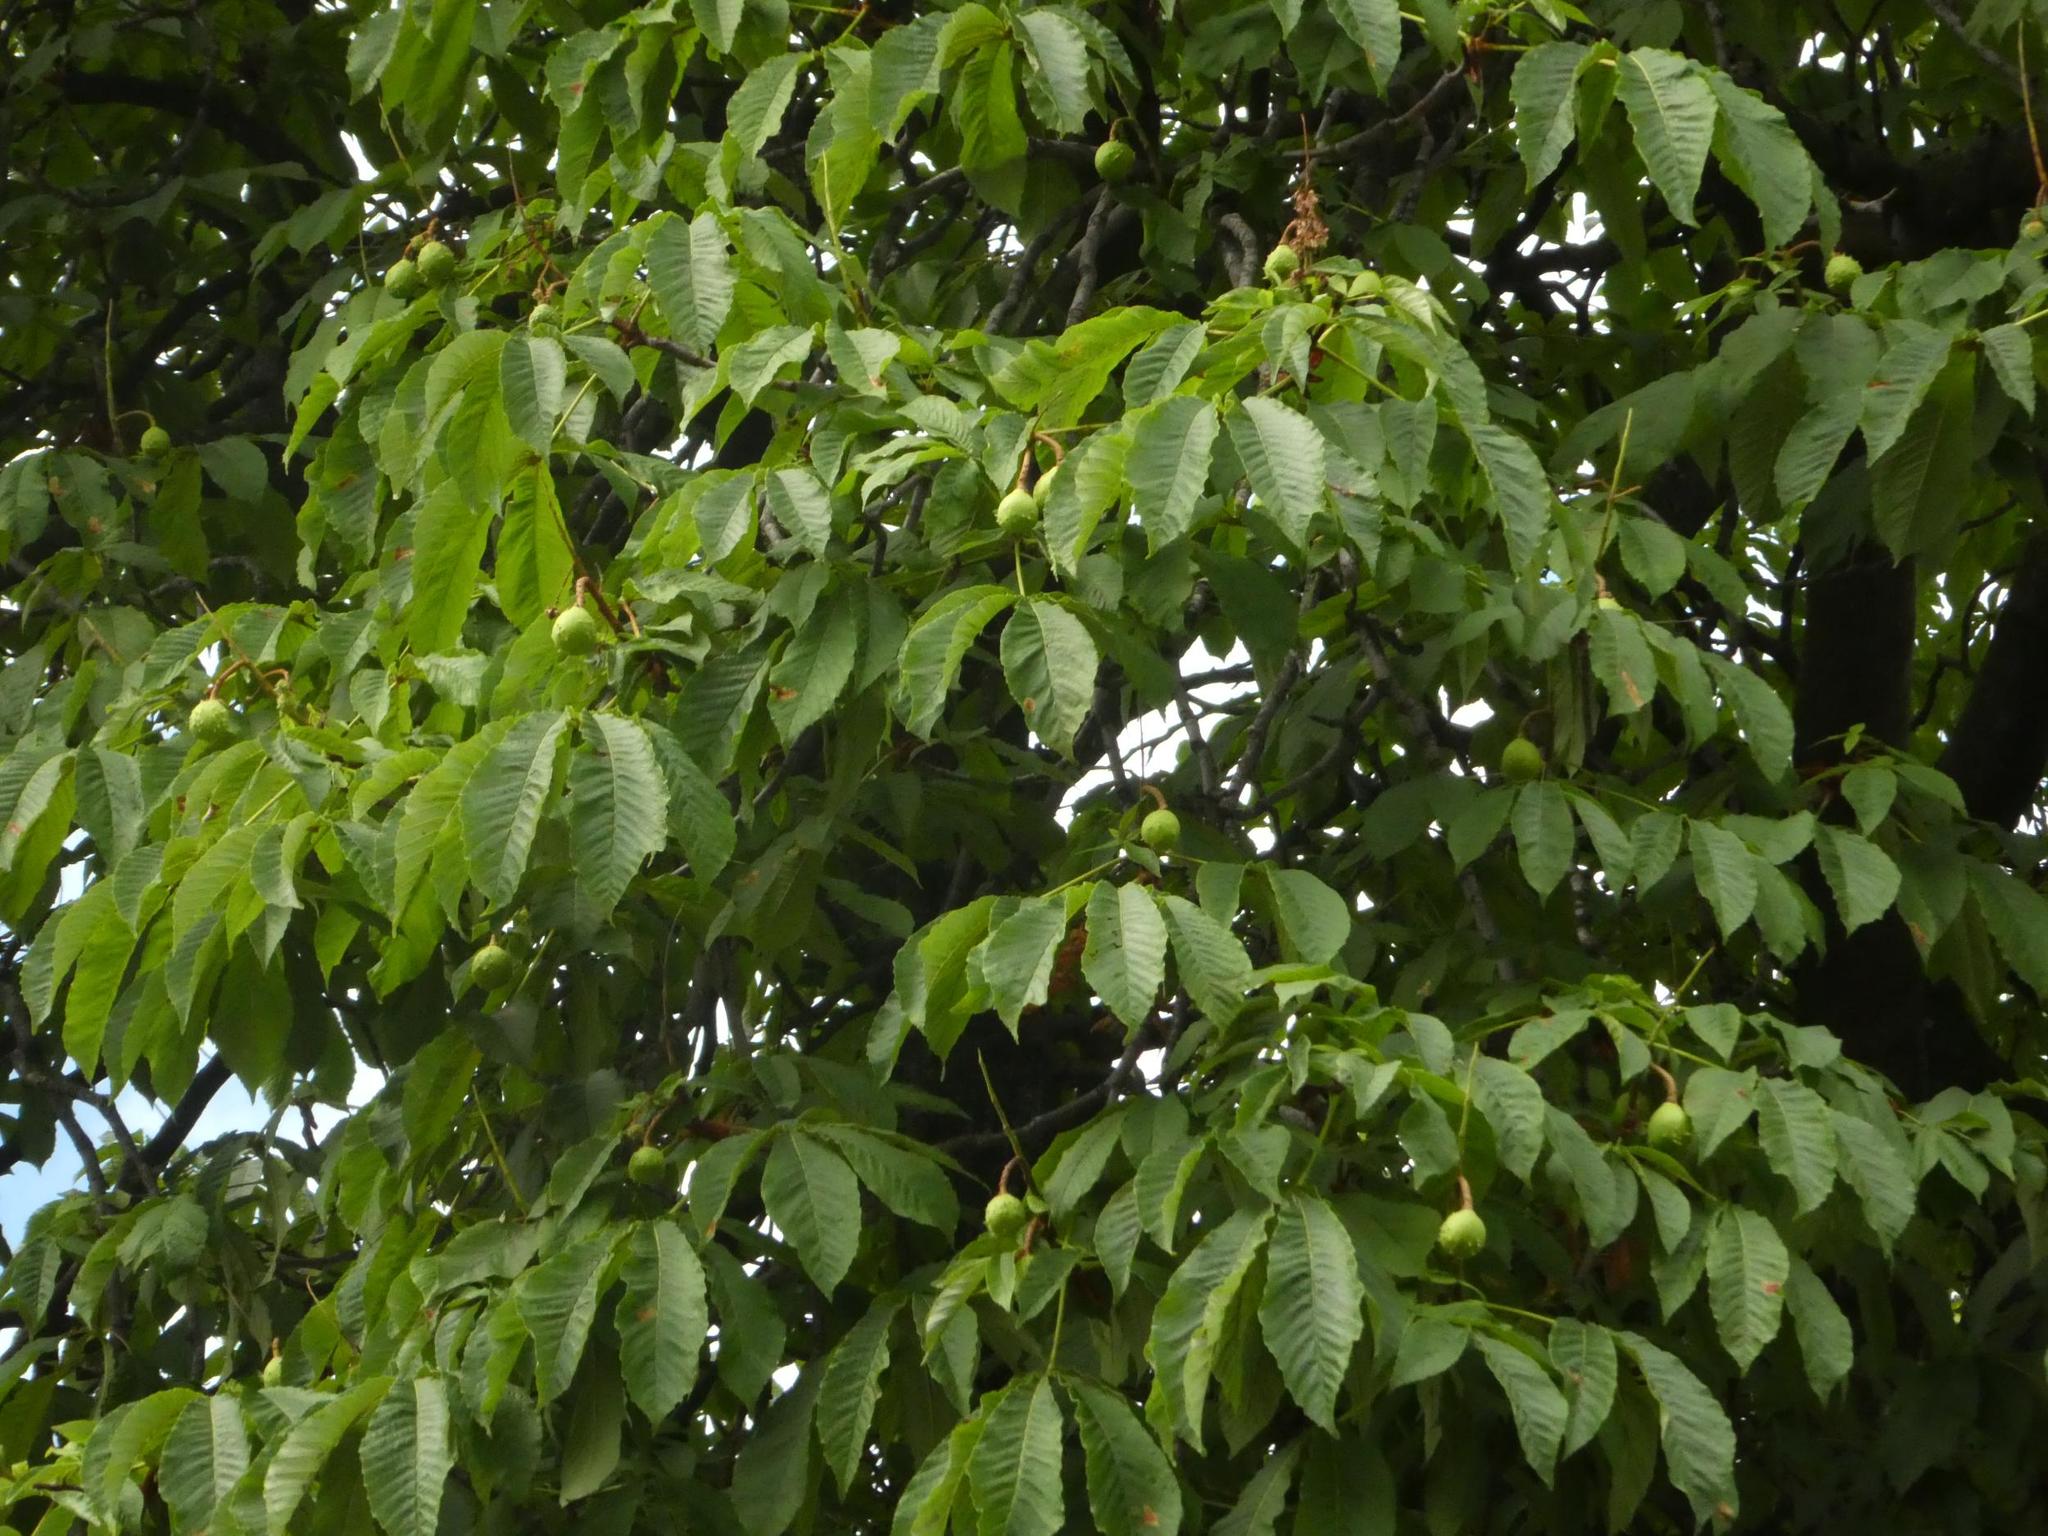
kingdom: Plantae
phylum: Tracheophyta
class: Magnoliopsida
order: Sapindales
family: Sapindaceae
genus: Aesculus
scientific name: Aesculus hippocastanum
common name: Horse-chestnut
